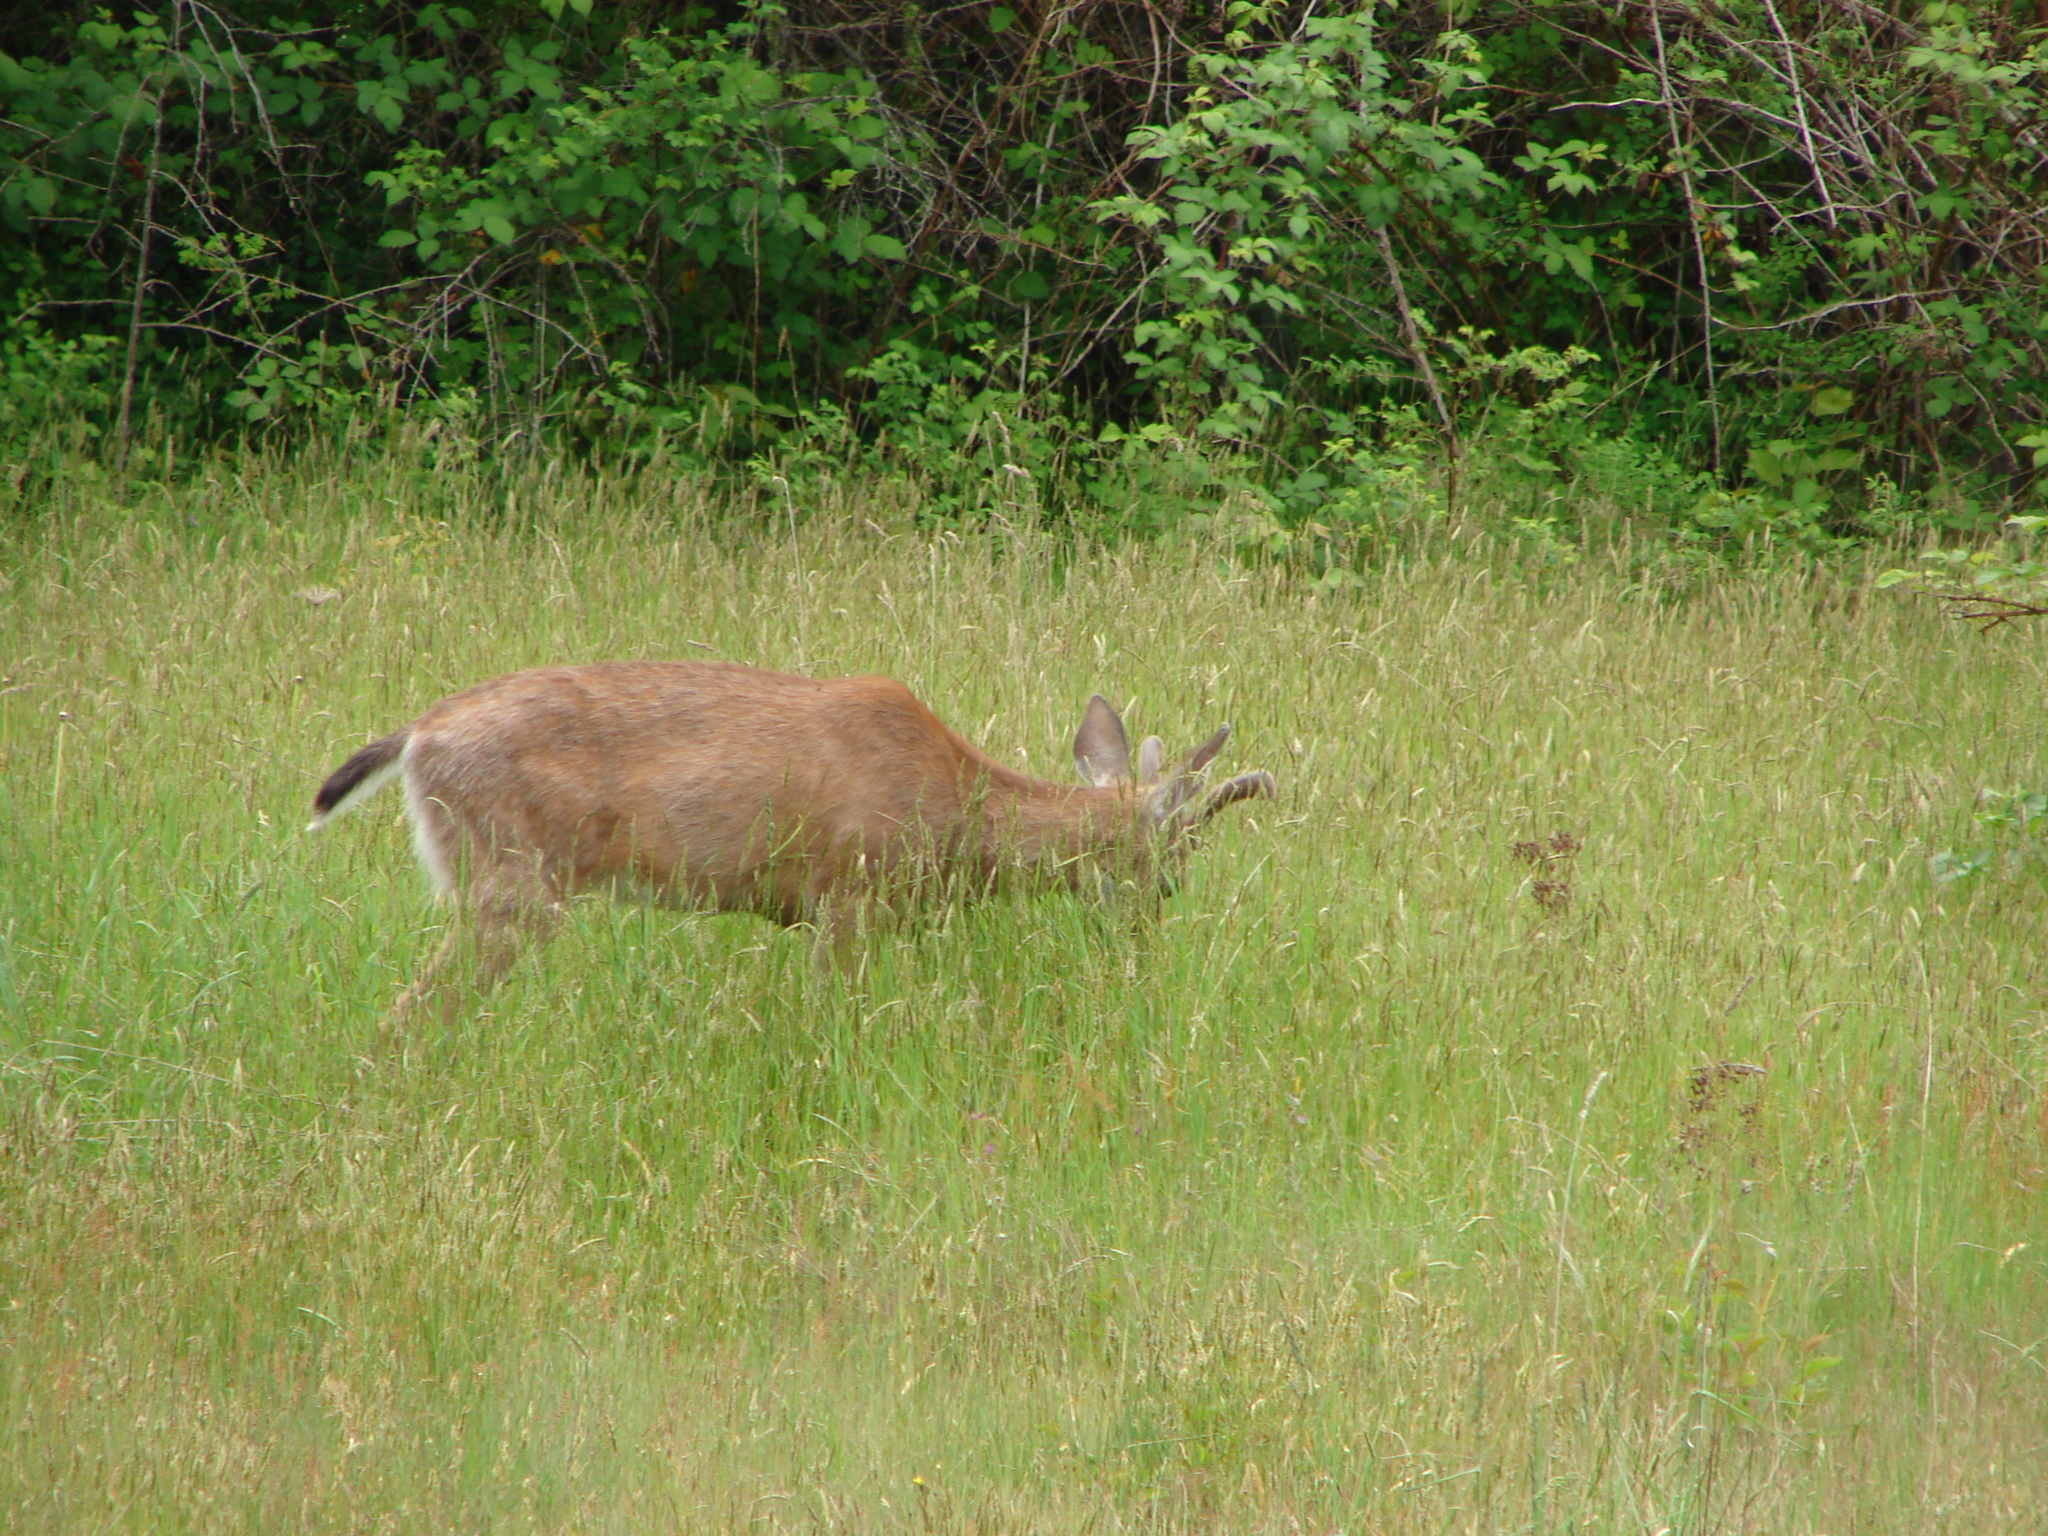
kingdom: Animalia
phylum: Chordata
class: Mammalia
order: Artiodactyla
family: Cervidae
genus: Odocoileus
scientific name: Odocoileus hemionus
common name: Mule deer
